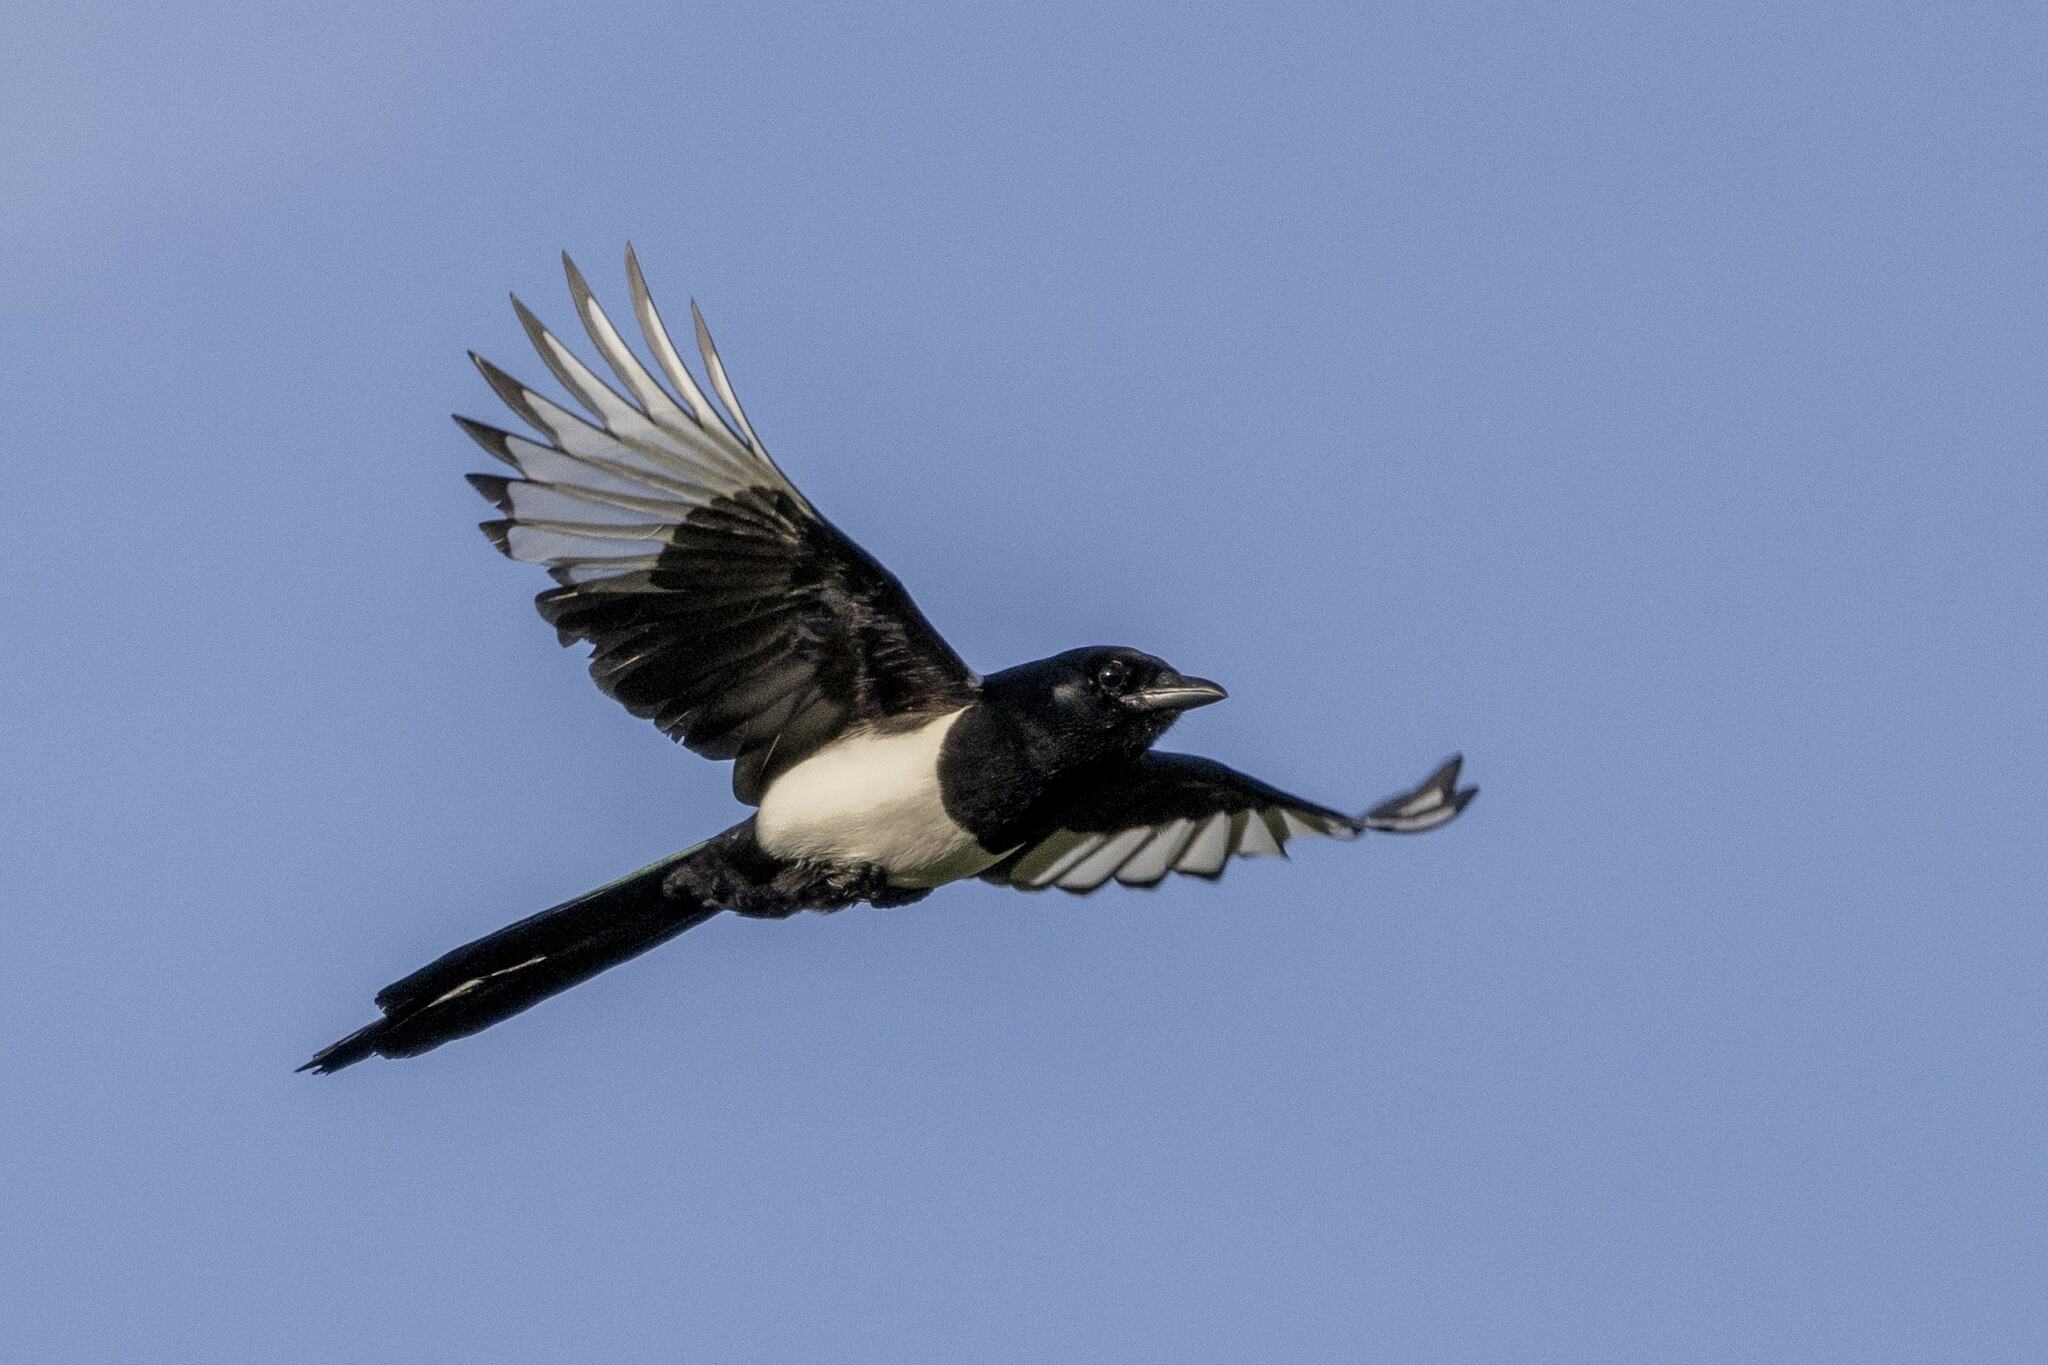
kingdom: Animalia
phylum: Chordata
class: Aves
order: Passeriformes
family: Corvidae
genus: Pica
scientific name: Pica pica
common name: Eurasian magpie
